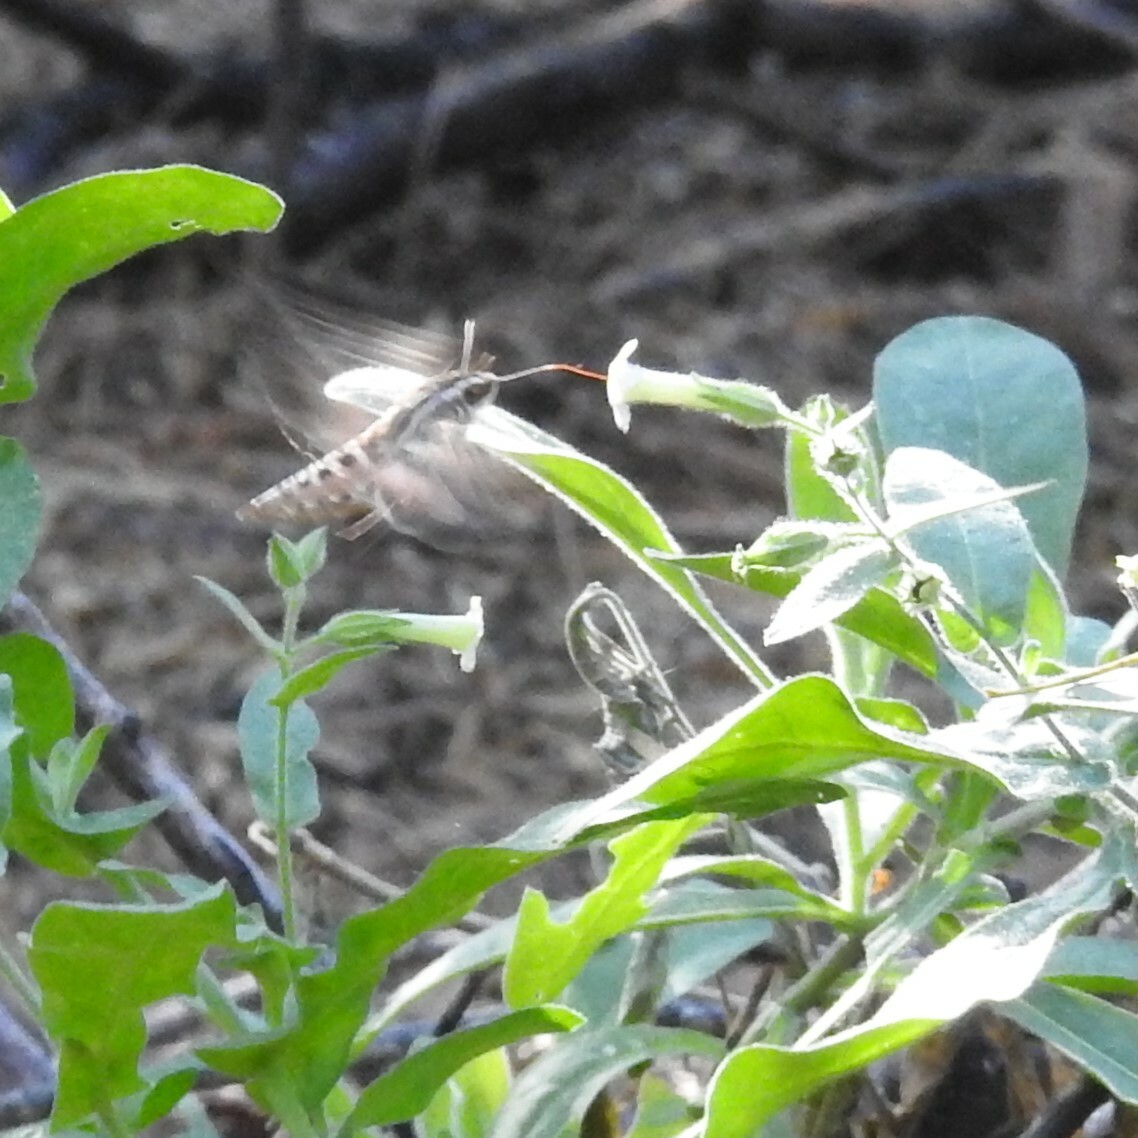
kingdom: Animalia
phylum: Arthropoda
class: Insecta
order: Lepidoptera
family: Sphingidae
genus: Hyles
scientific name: Hyles lineata
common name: White-lined sphinx
